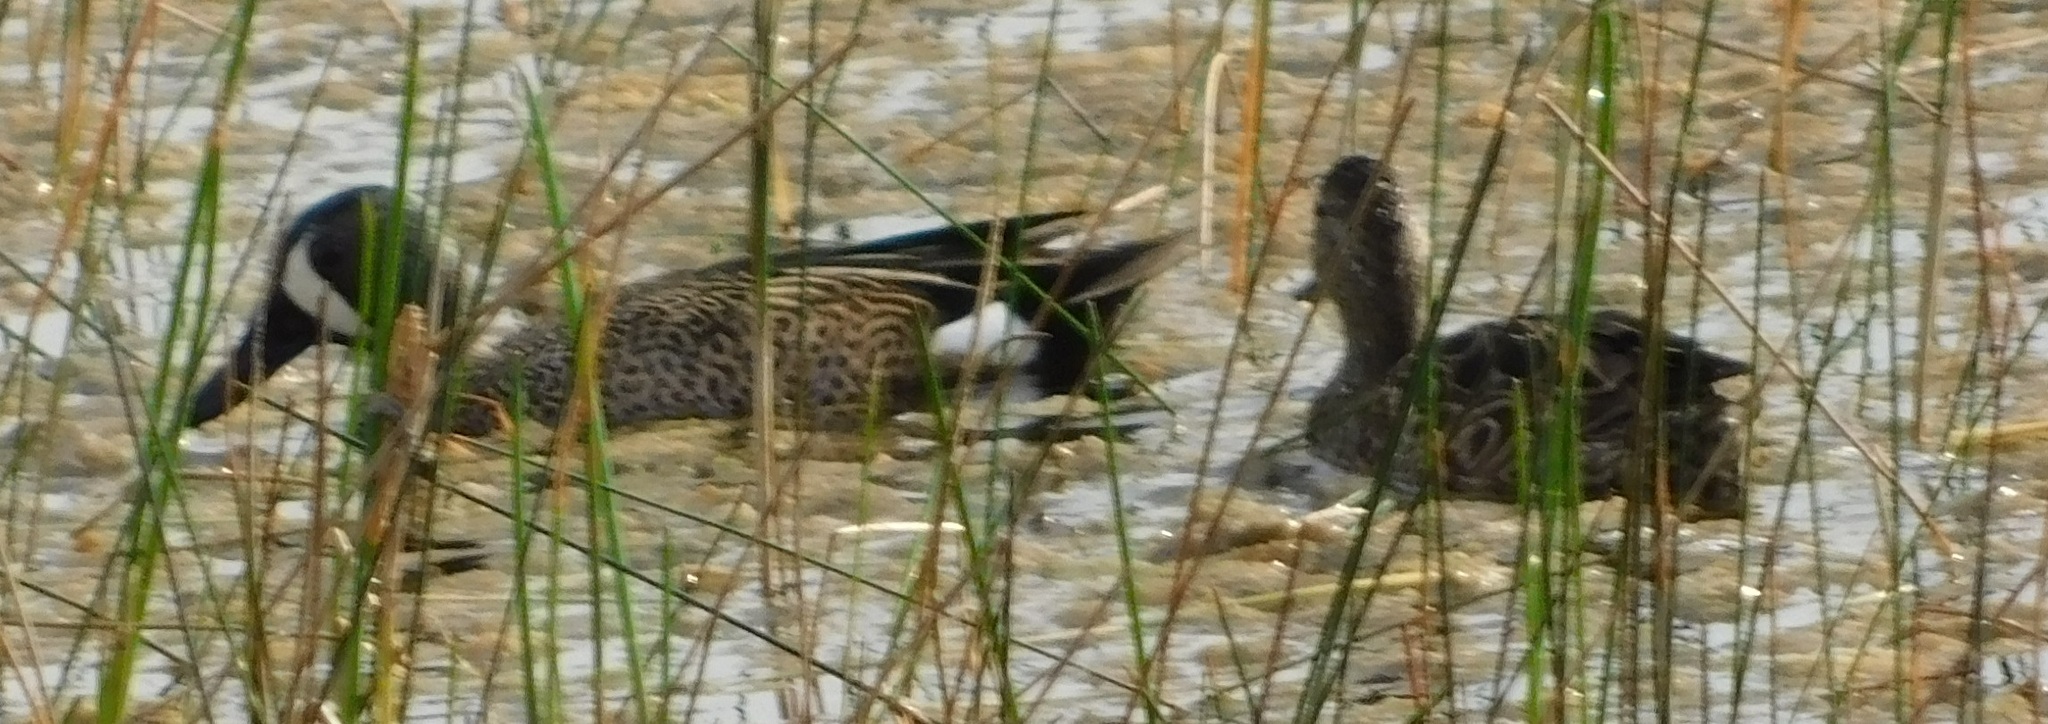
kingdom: Animalia
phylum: Chordata
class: Aves
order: Anseriformes
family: Anatidae
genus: Spatula
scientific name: Spatula discors
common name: Blue-winged teal
